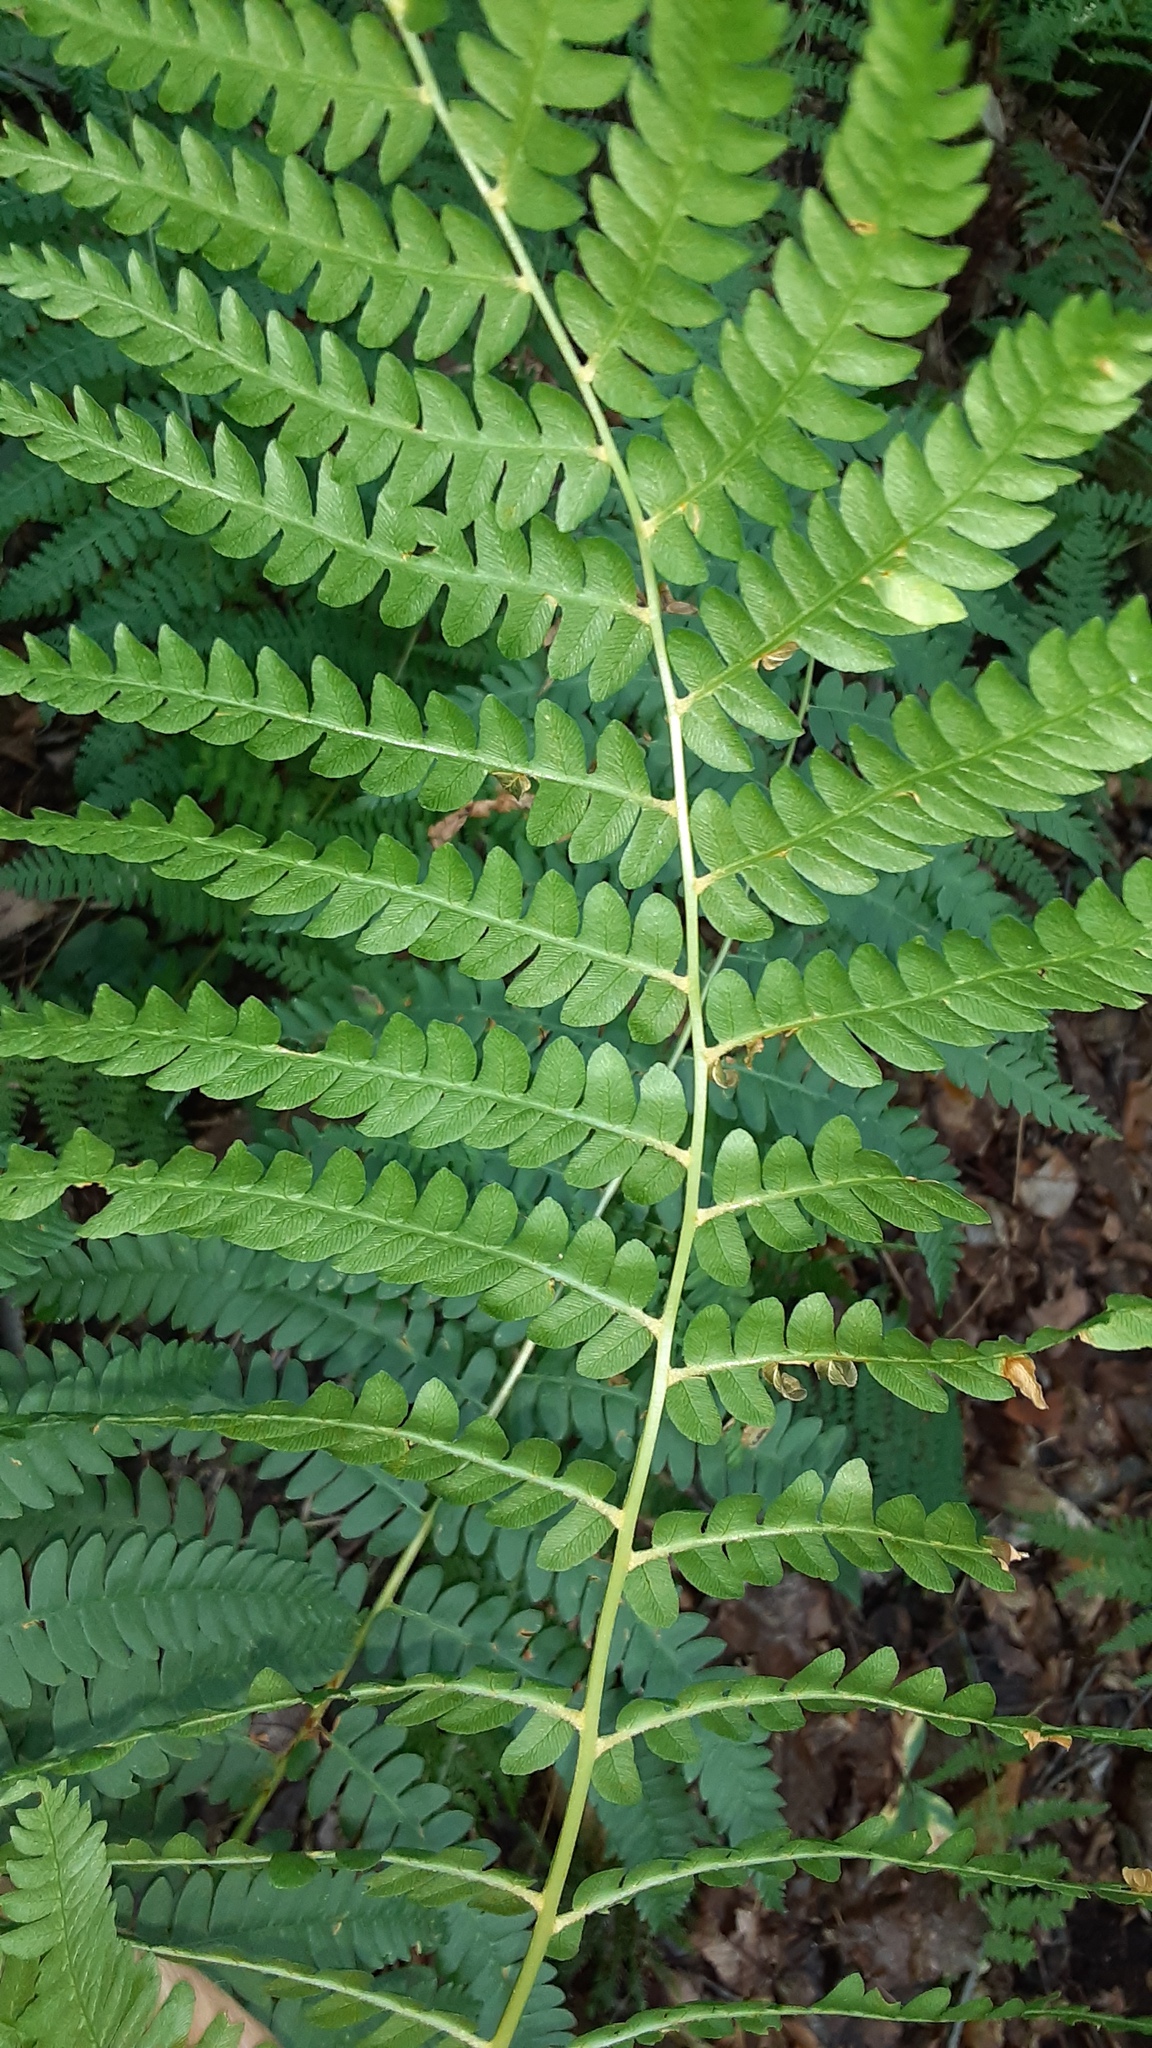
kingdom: Plantae
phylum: Tracheophyta
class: Polypodiopsida
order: Osmundales
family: Osmundaceae
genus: Osmundastrum
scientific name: Osmundastrum cinnamomeum
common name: Cinnamon fern
